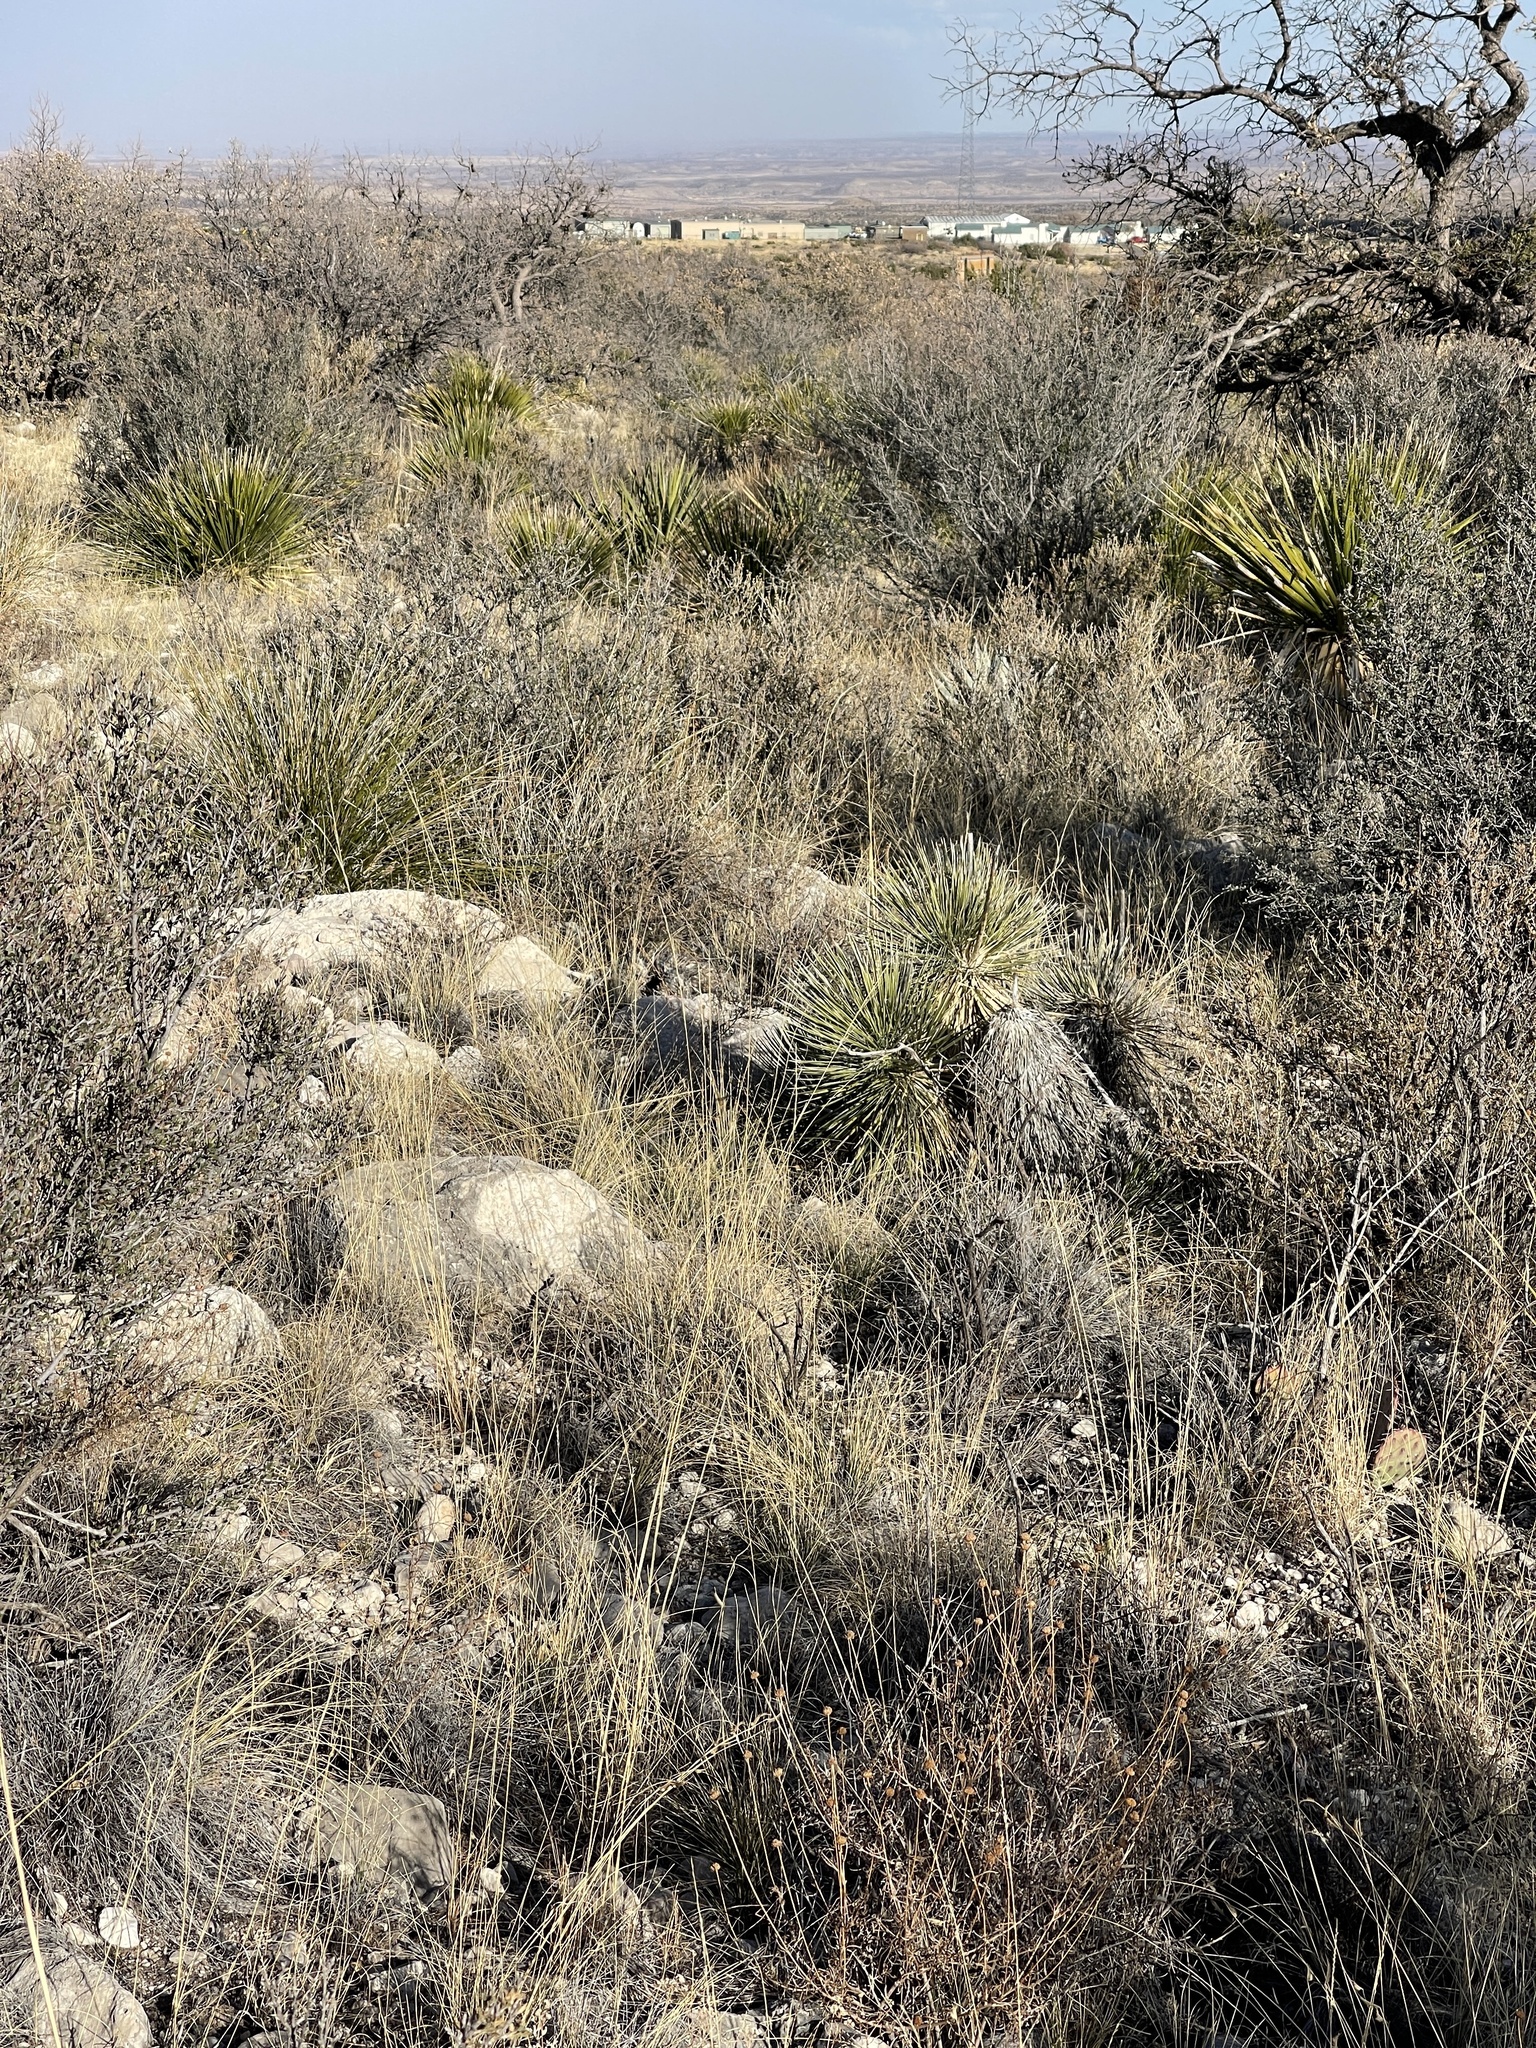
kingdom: Plantae
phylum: Tracheophyta
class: Liliopsida
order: Asparagales
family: Asparagaceae
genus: Yucca
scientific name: Yucca elata
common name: Palmella
